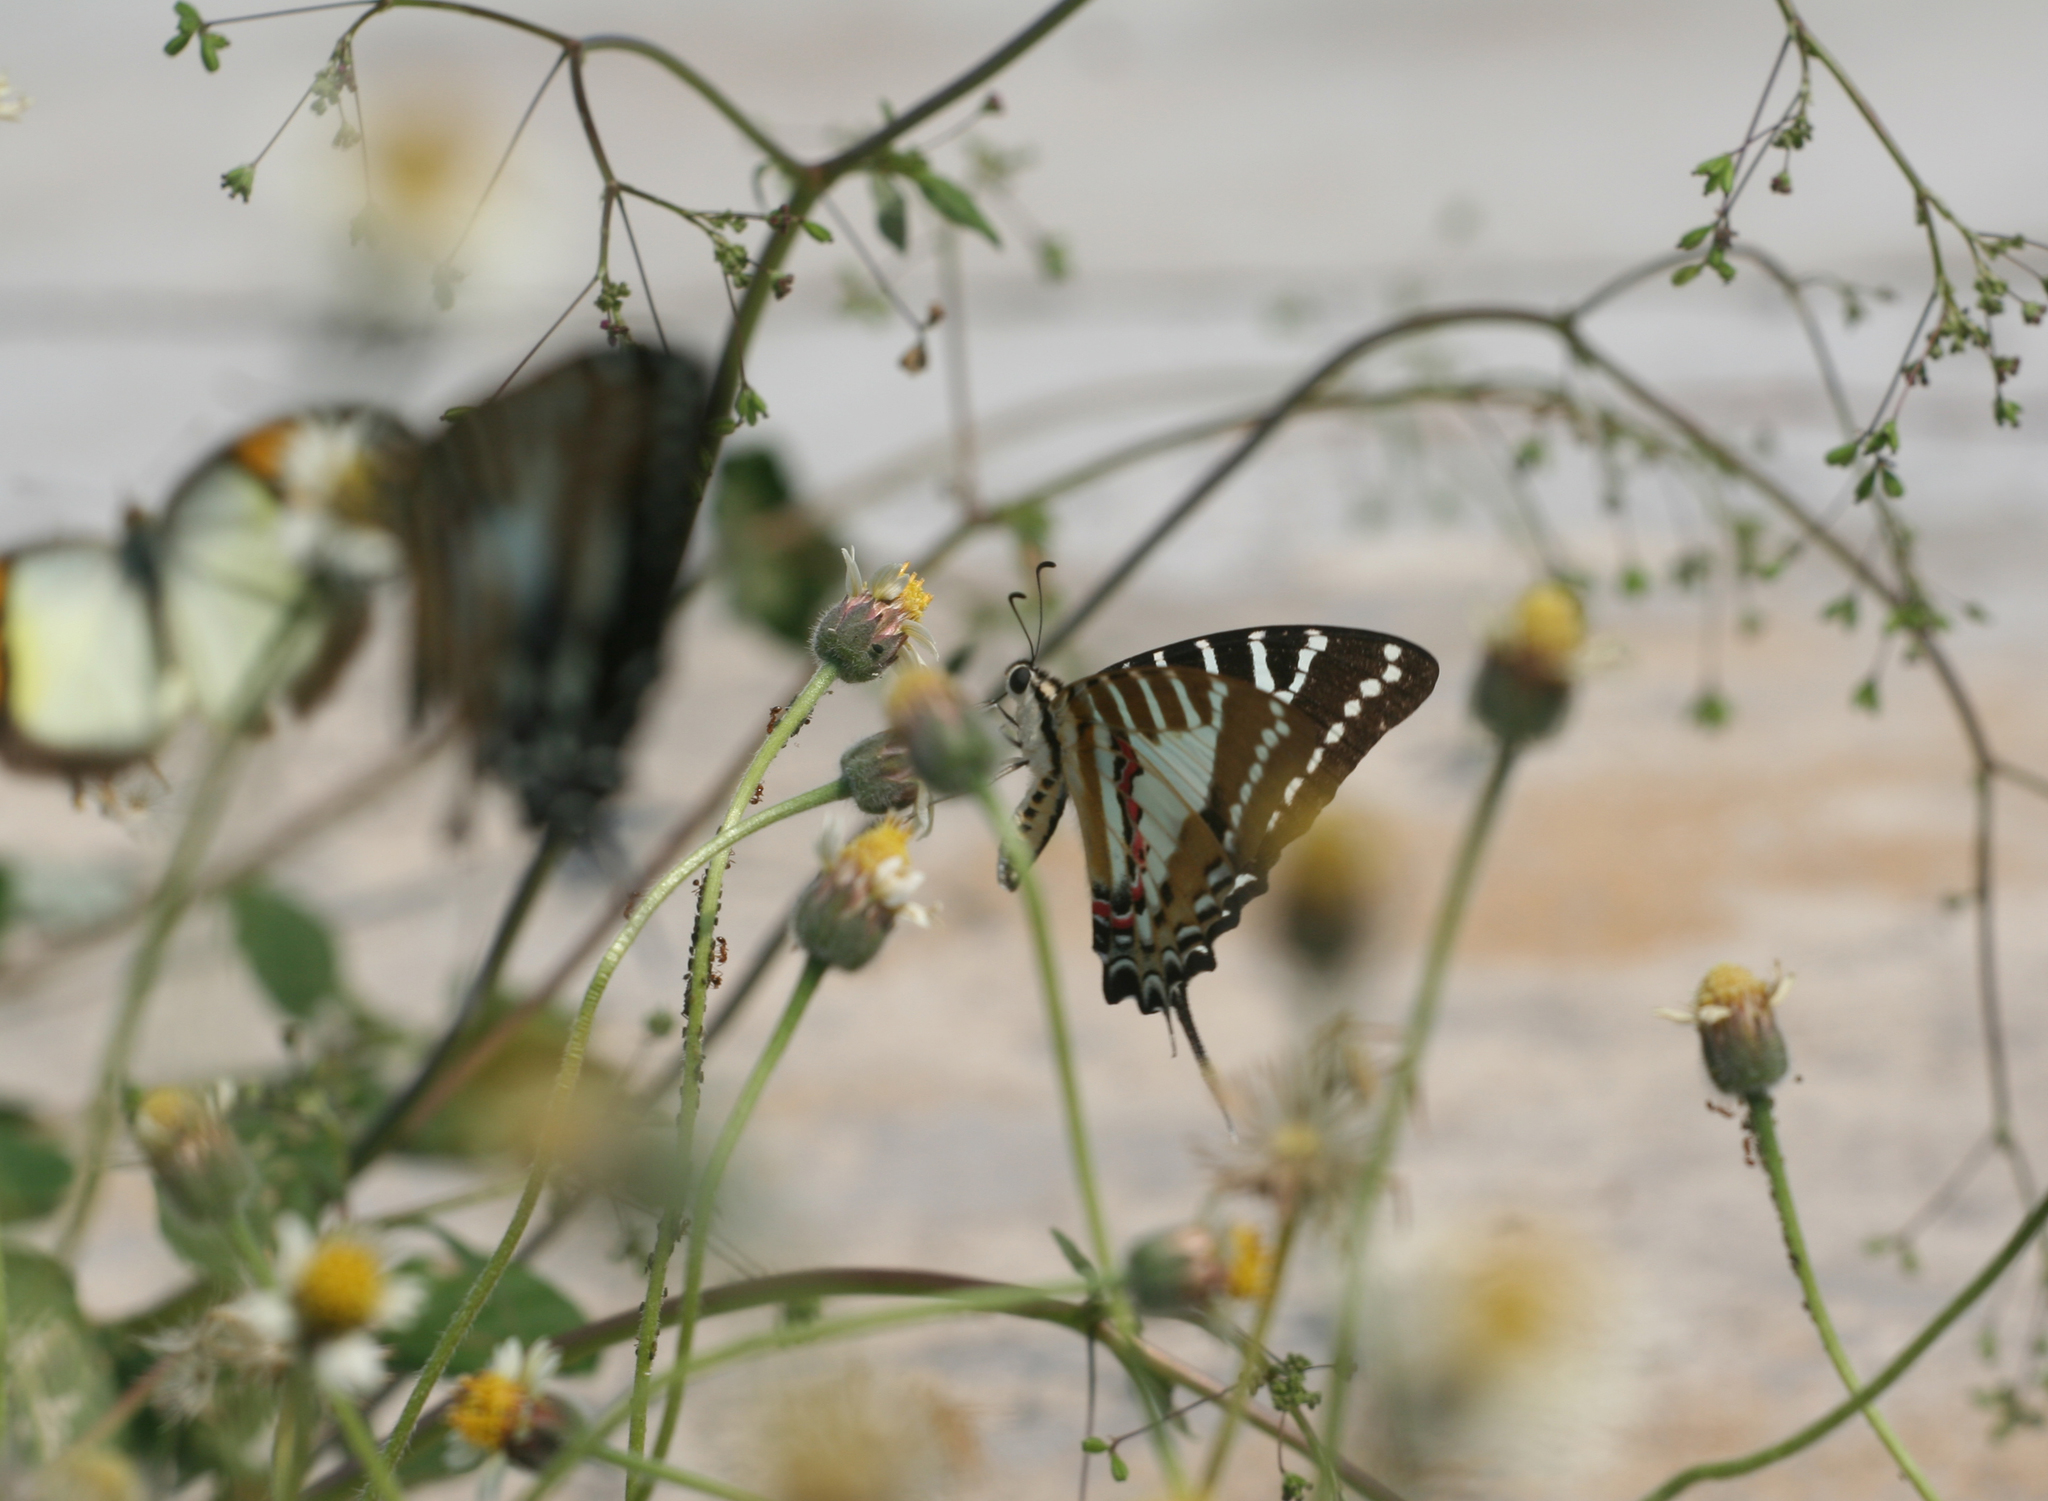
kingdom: Animalia
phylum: Arthropoda
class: Insecta
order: Lepidoptera
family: Papilionidae
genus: Graphium
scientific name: Graphium nomius
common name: Spot swordtail
